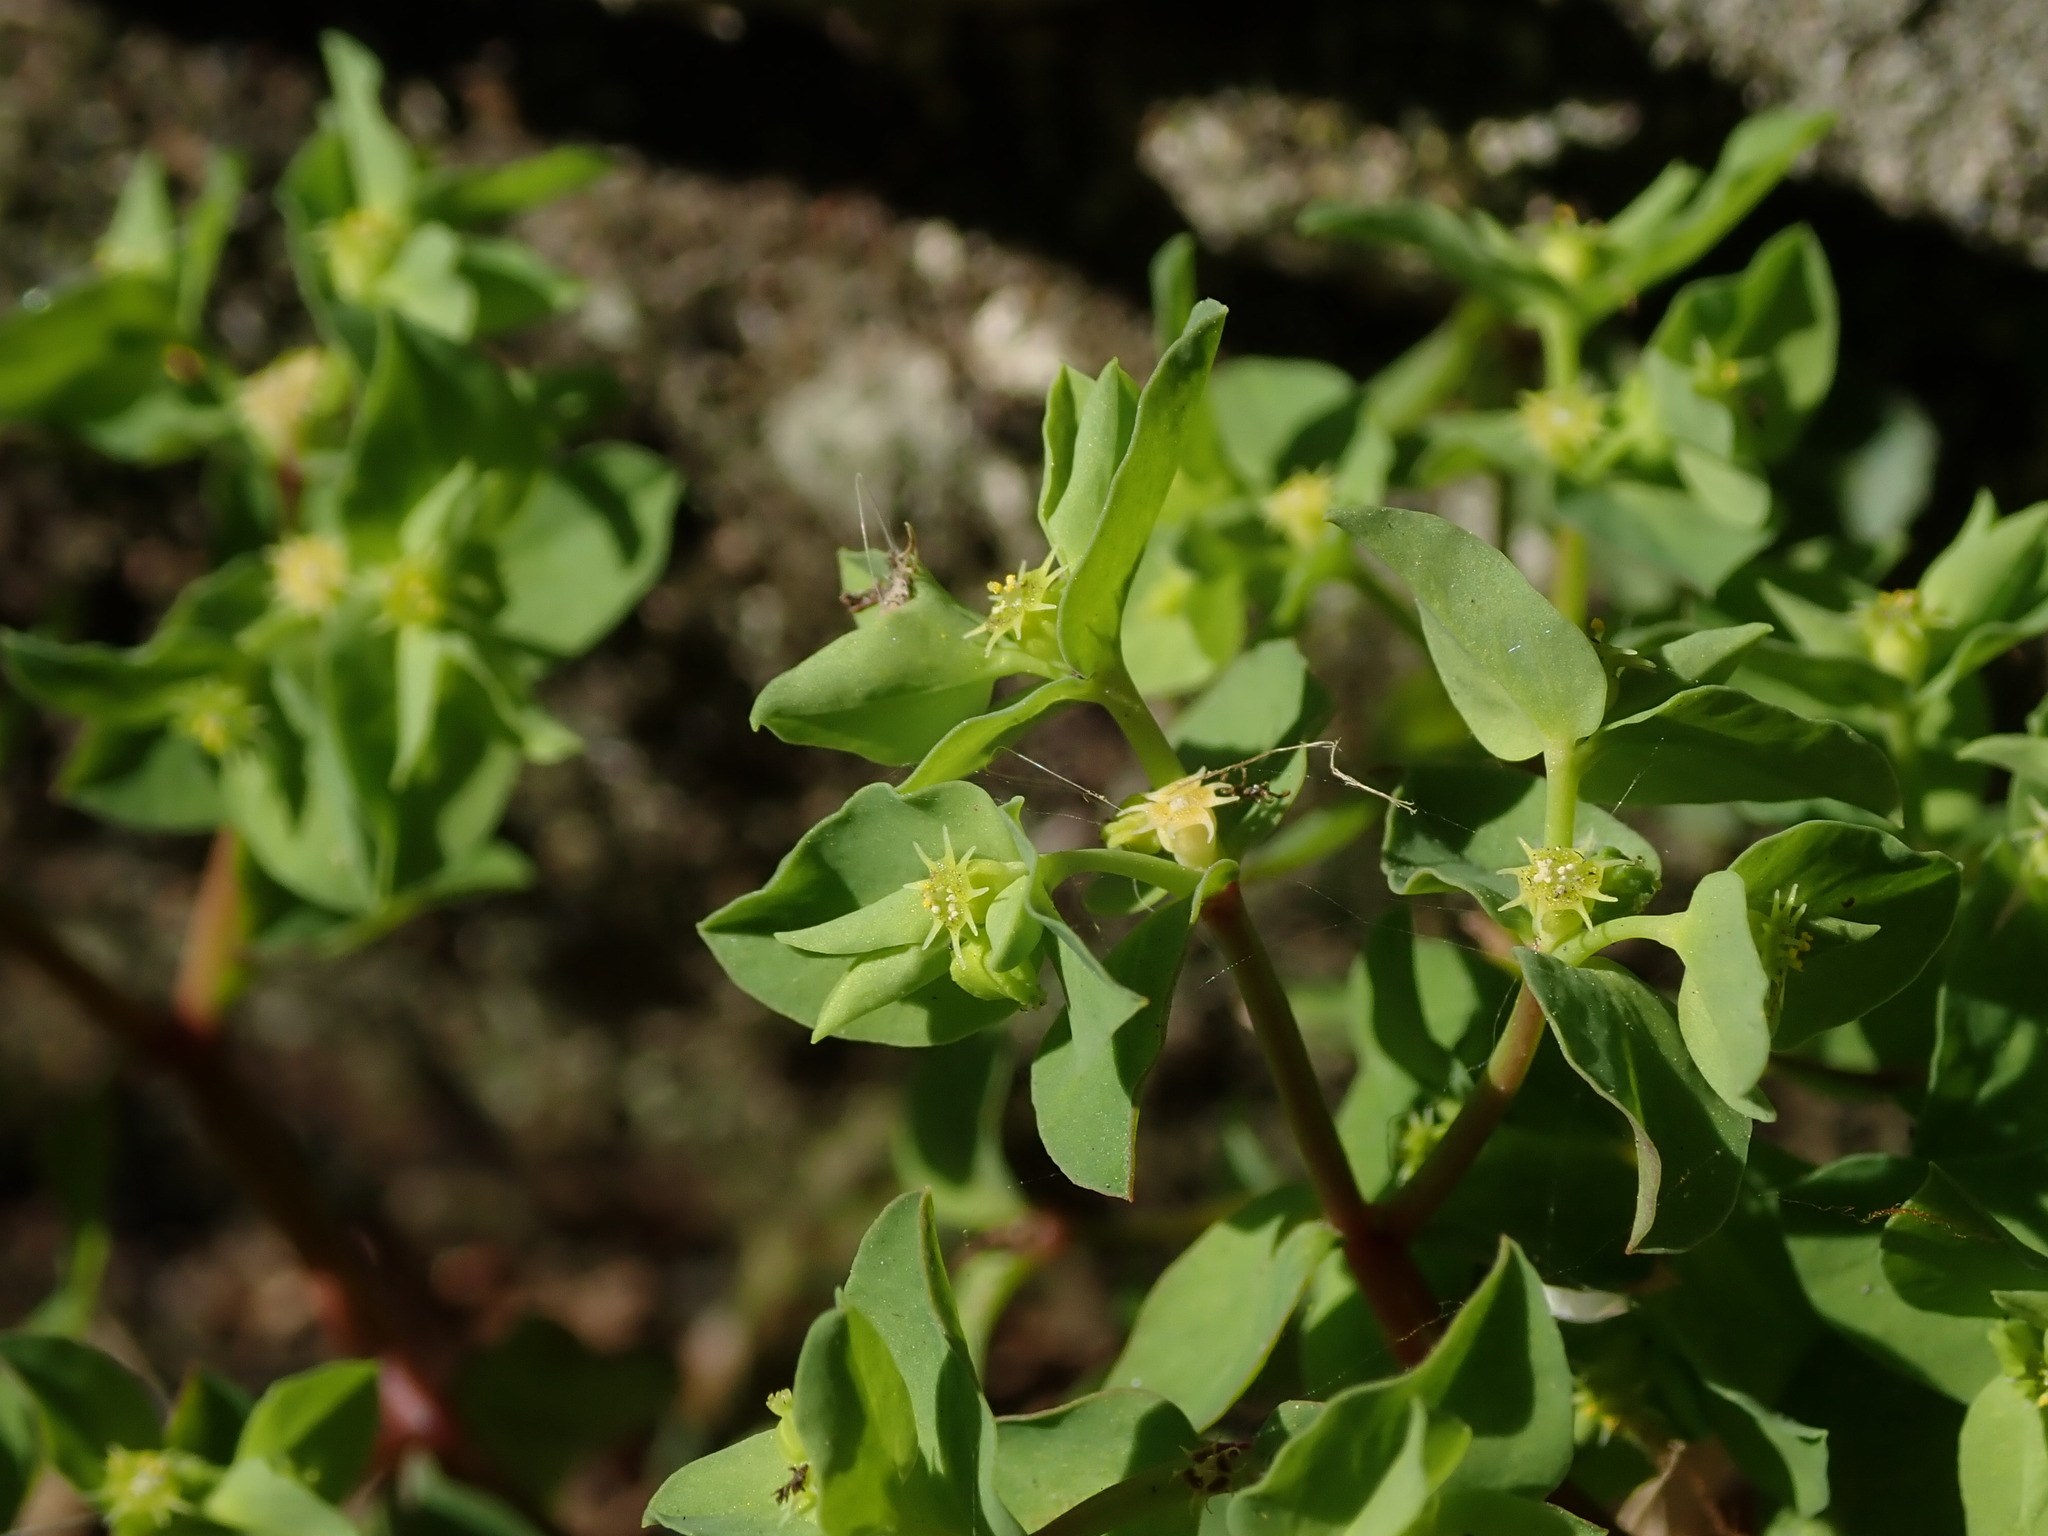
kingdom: Plantae
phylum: Tracheophyta
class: Magnoliopsida
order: Malpighiales
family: Euphorbiaceae
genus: Euphorbia
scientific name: Euphorbia peplus
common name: Petty spurge
